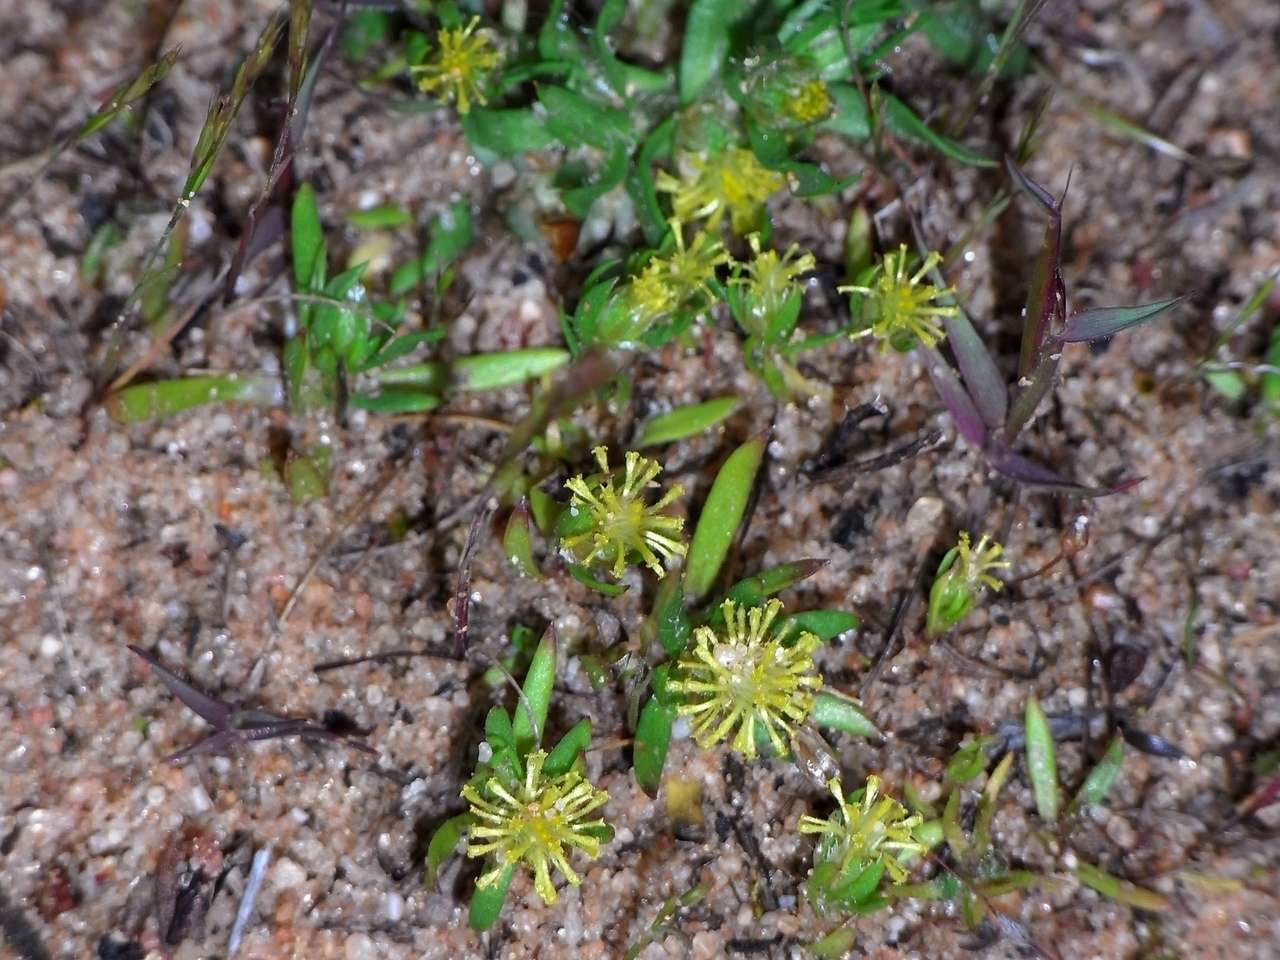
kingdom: Plantae
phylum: Tracheophyta
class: Magnoliopsida
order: Asterales
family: Asteraceae
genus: Triptilodiscus
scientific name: Triptilodiscus pygmaeus
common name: Common sunray
